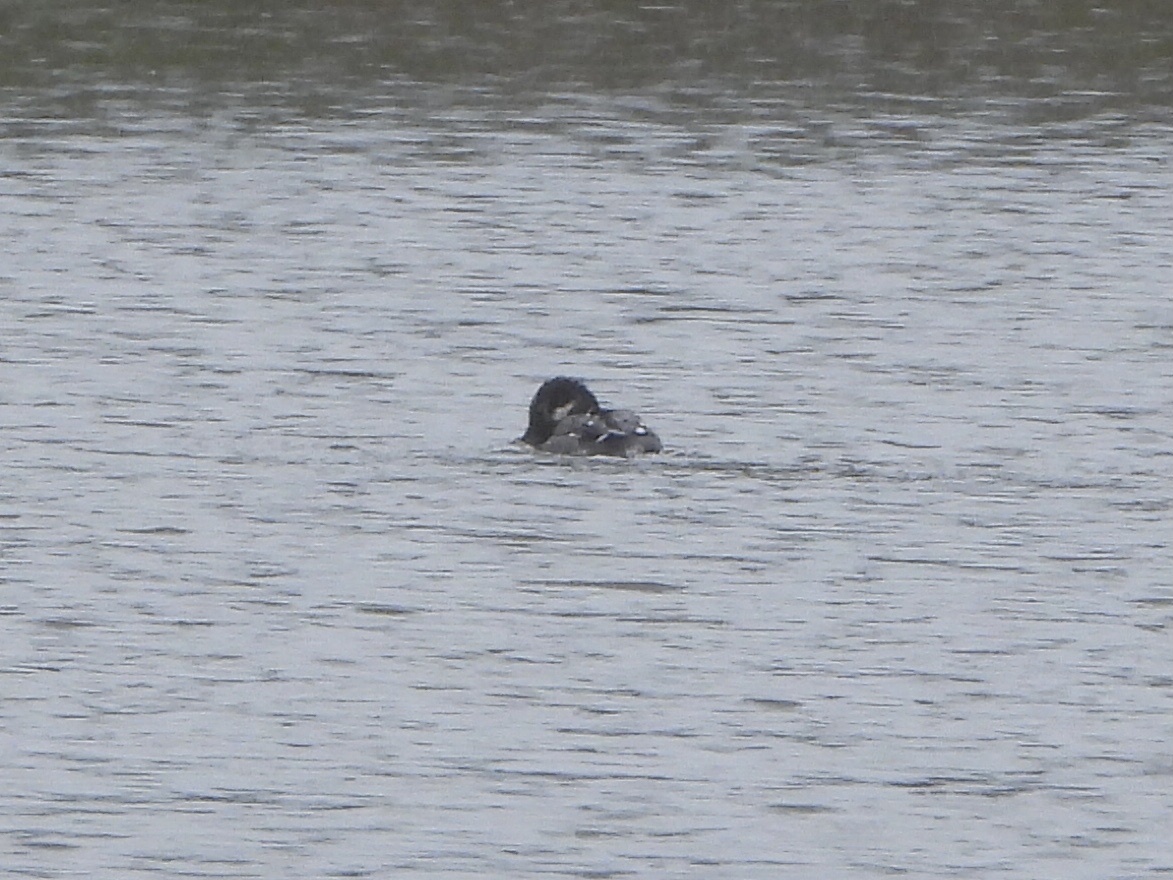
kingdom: Animalia
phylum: Chordata
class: Aves
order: Anseriformes
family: Anatidae
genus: Bucephala
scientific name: Bucephala albeola
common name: Bufflehead
